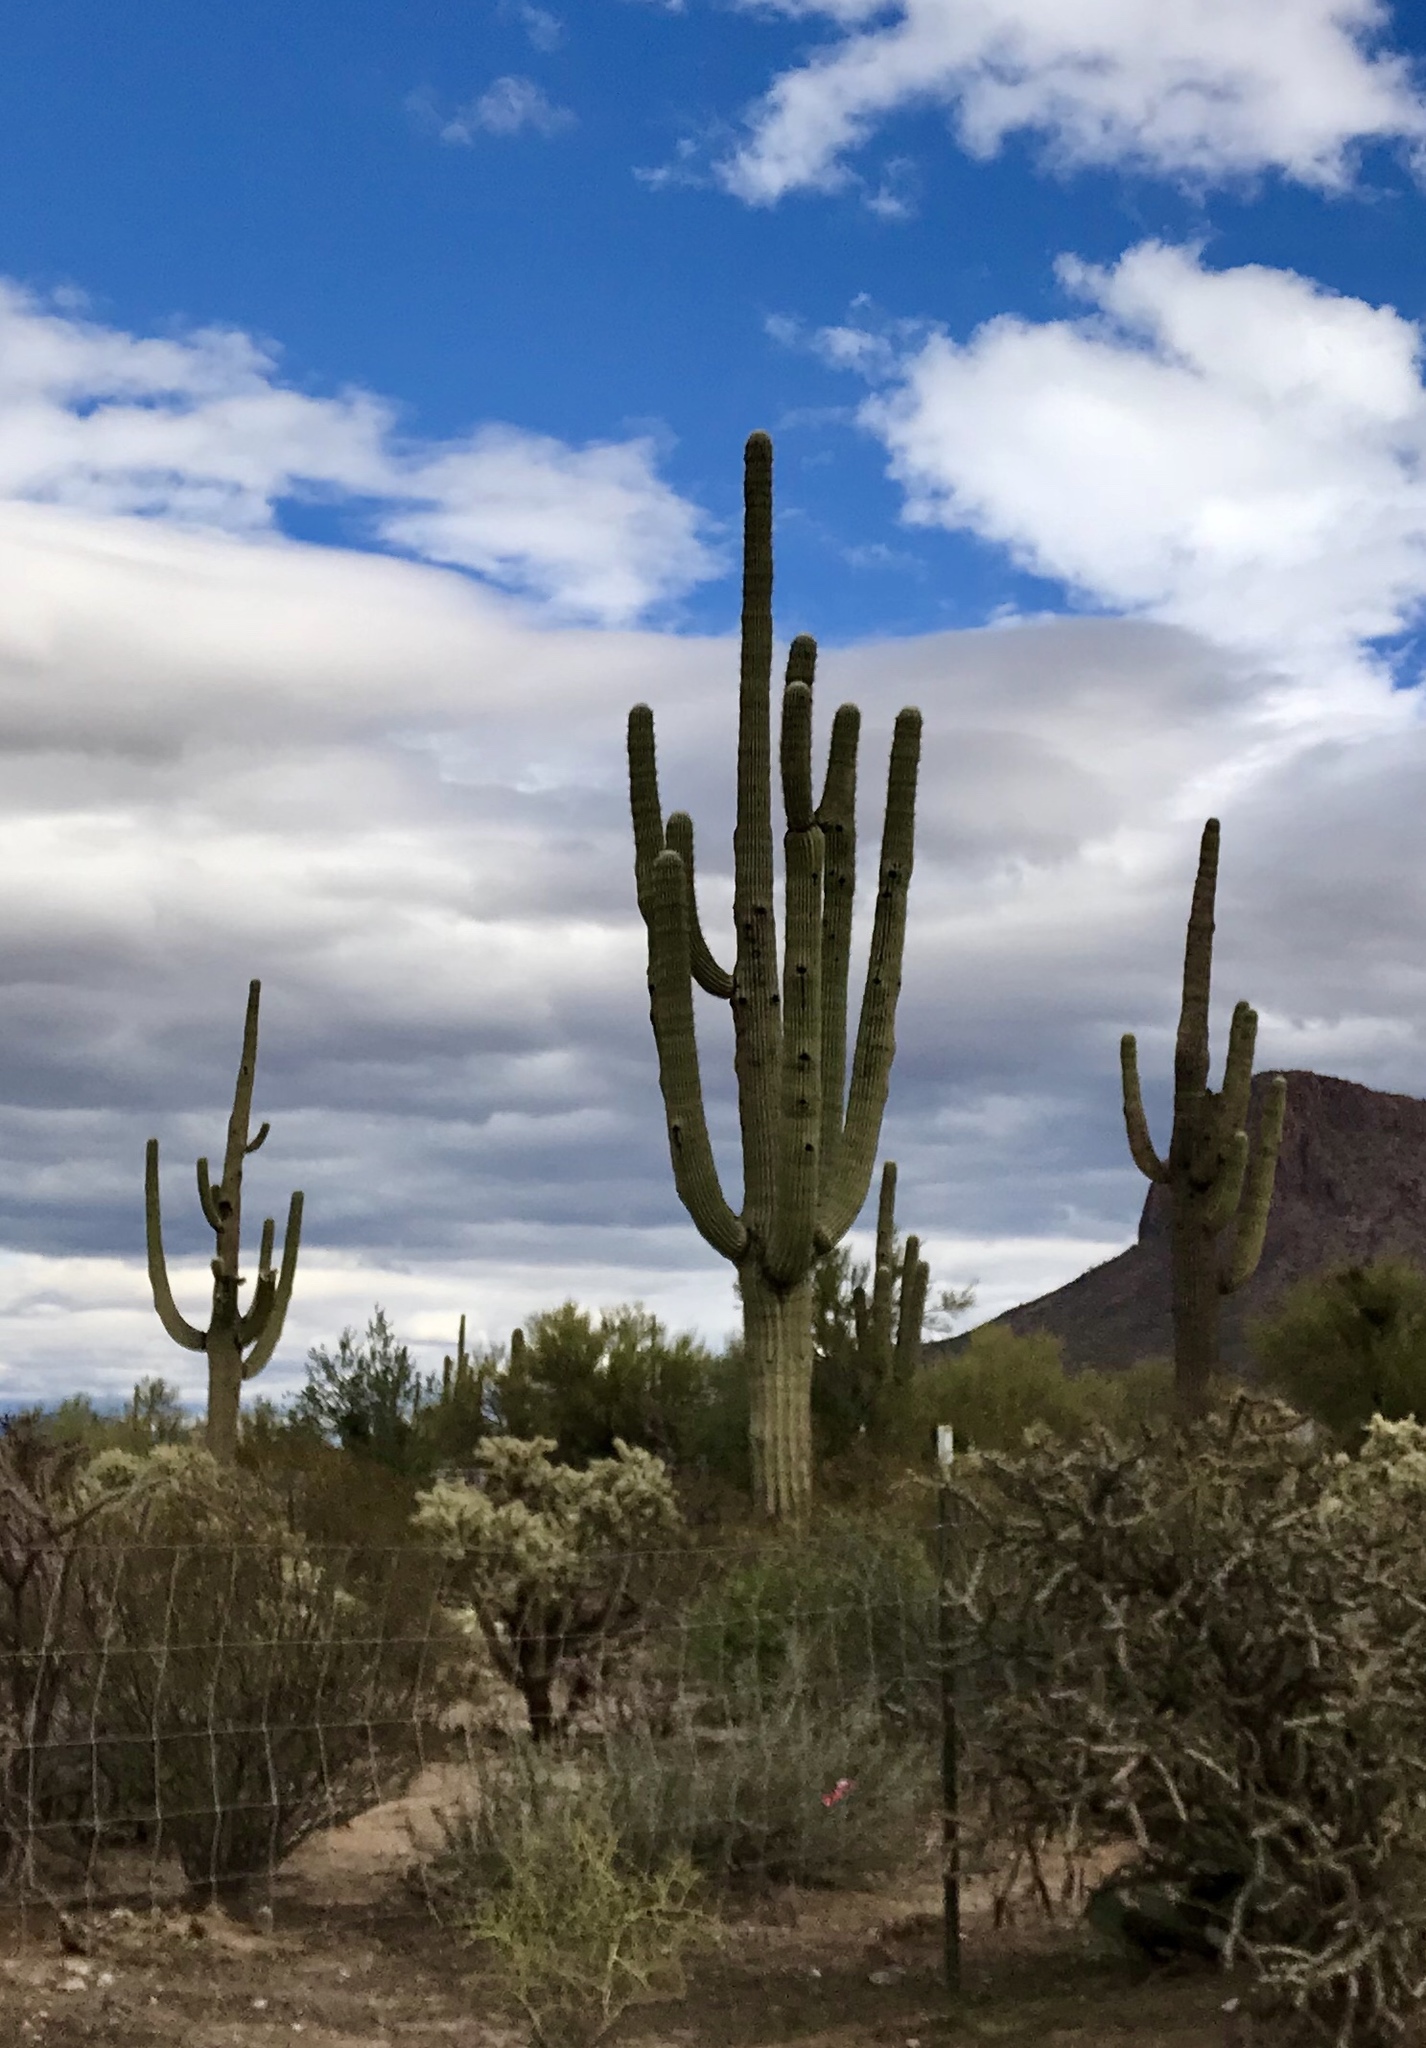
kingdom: Plantae
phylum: Tracheophyta
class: Magnoliopsida
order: Caryophyllales
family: Cactaceae
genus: Carnegiea
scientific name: Carnegiea gigantea
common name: Saguaro
